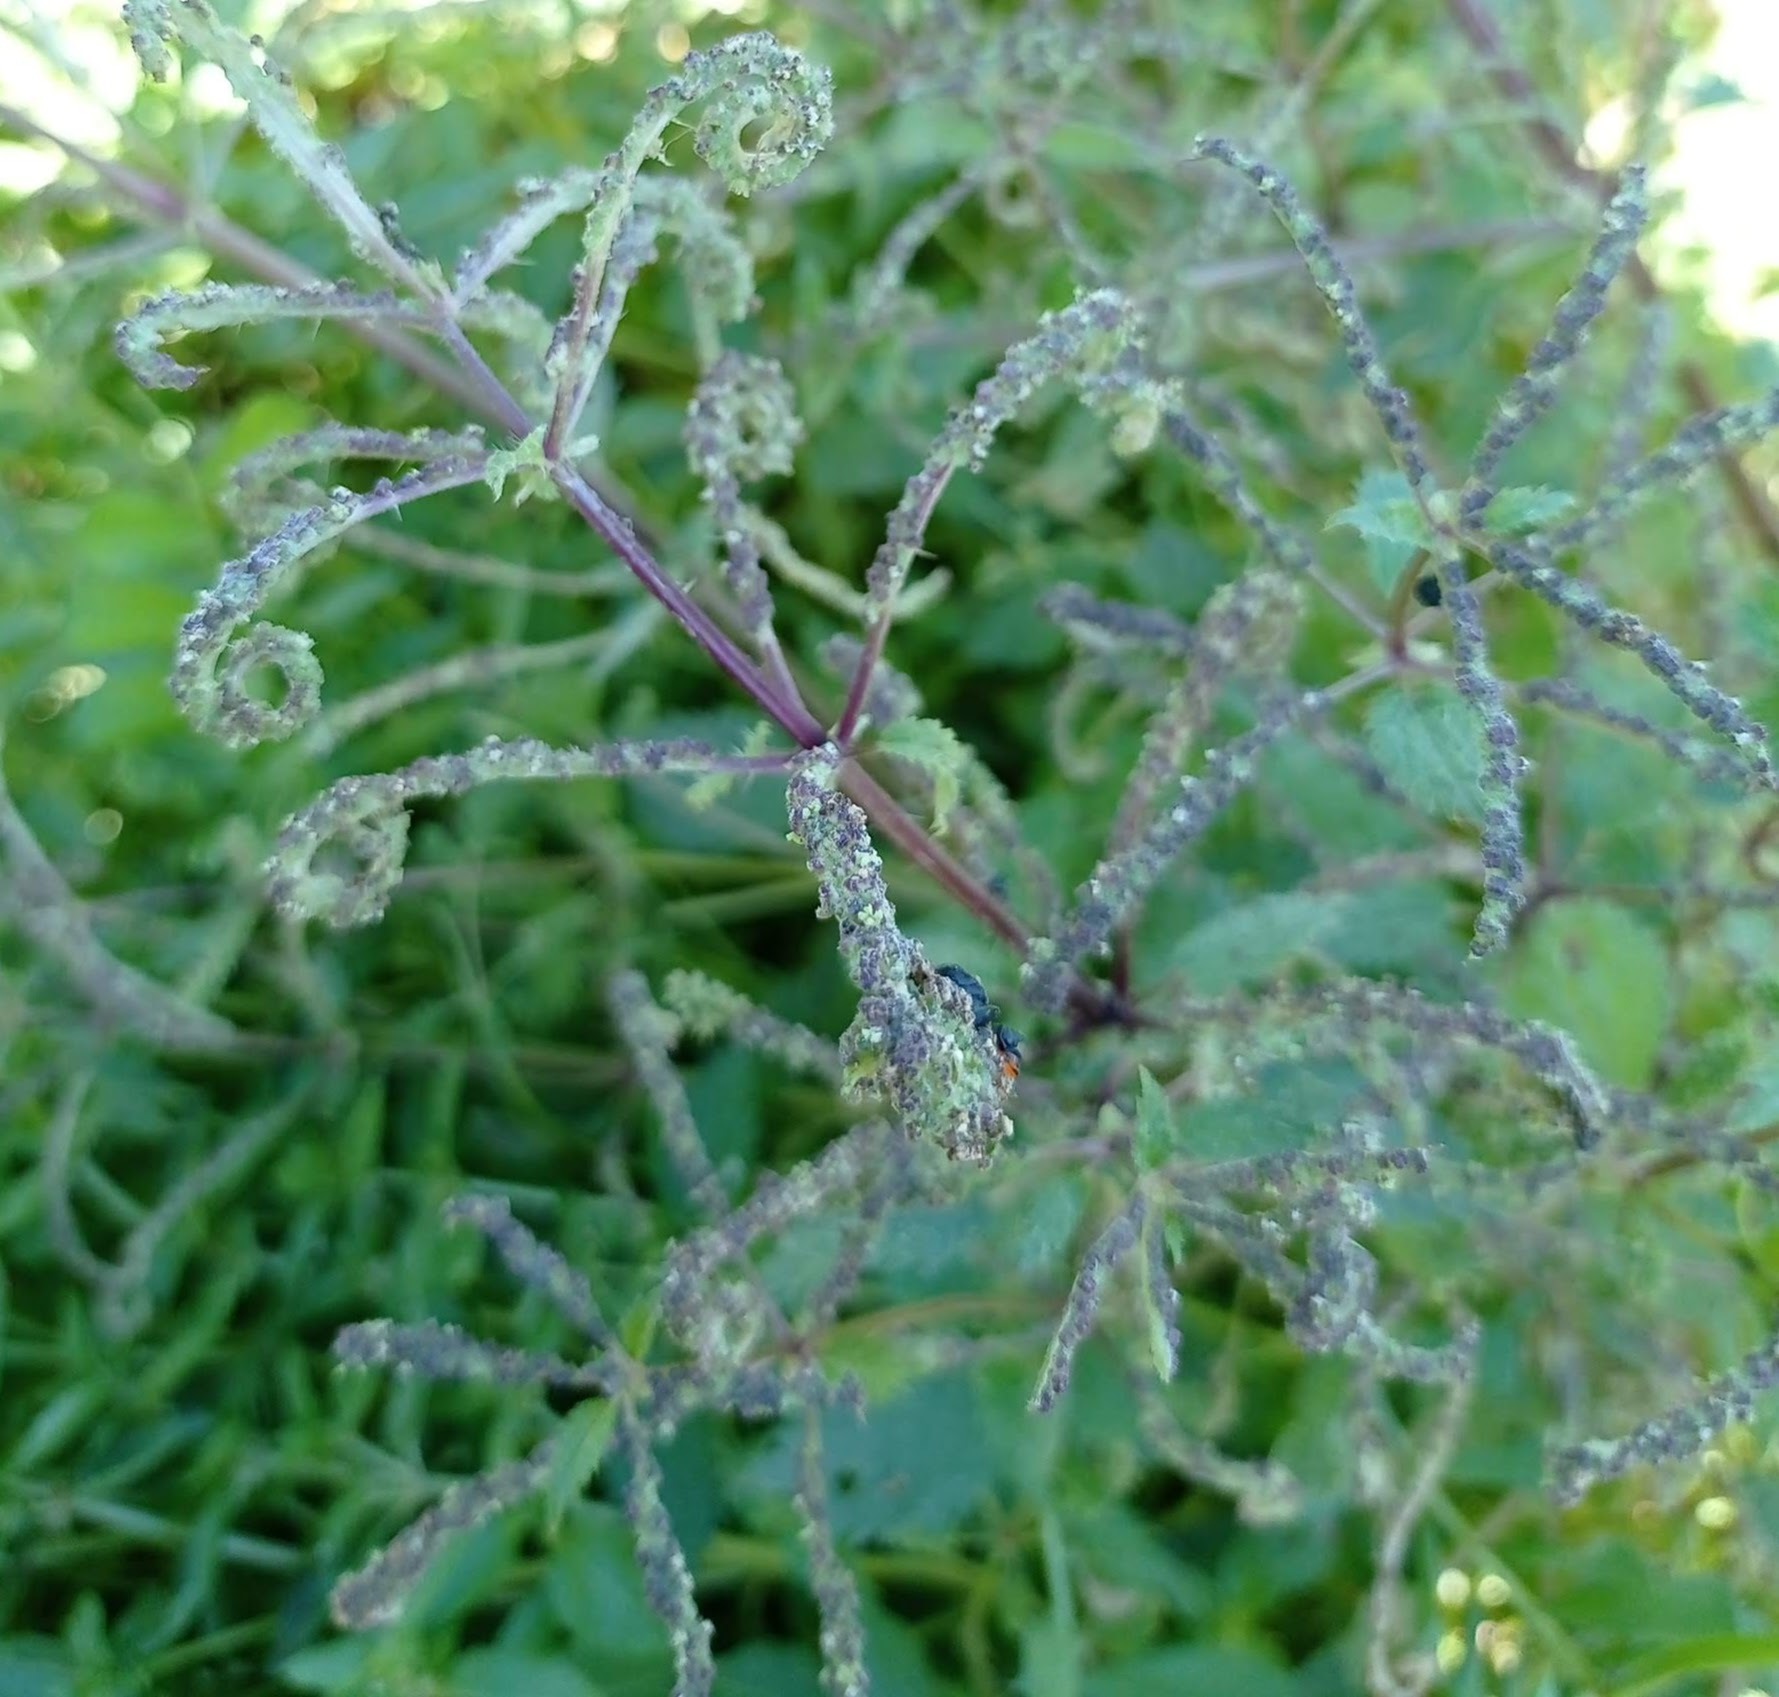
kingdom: Plantae
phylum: Tracheophyta
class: Magnoliopsida
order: Rosales
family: Urticaceae
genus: Urtica
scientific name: Urtica membranacea
